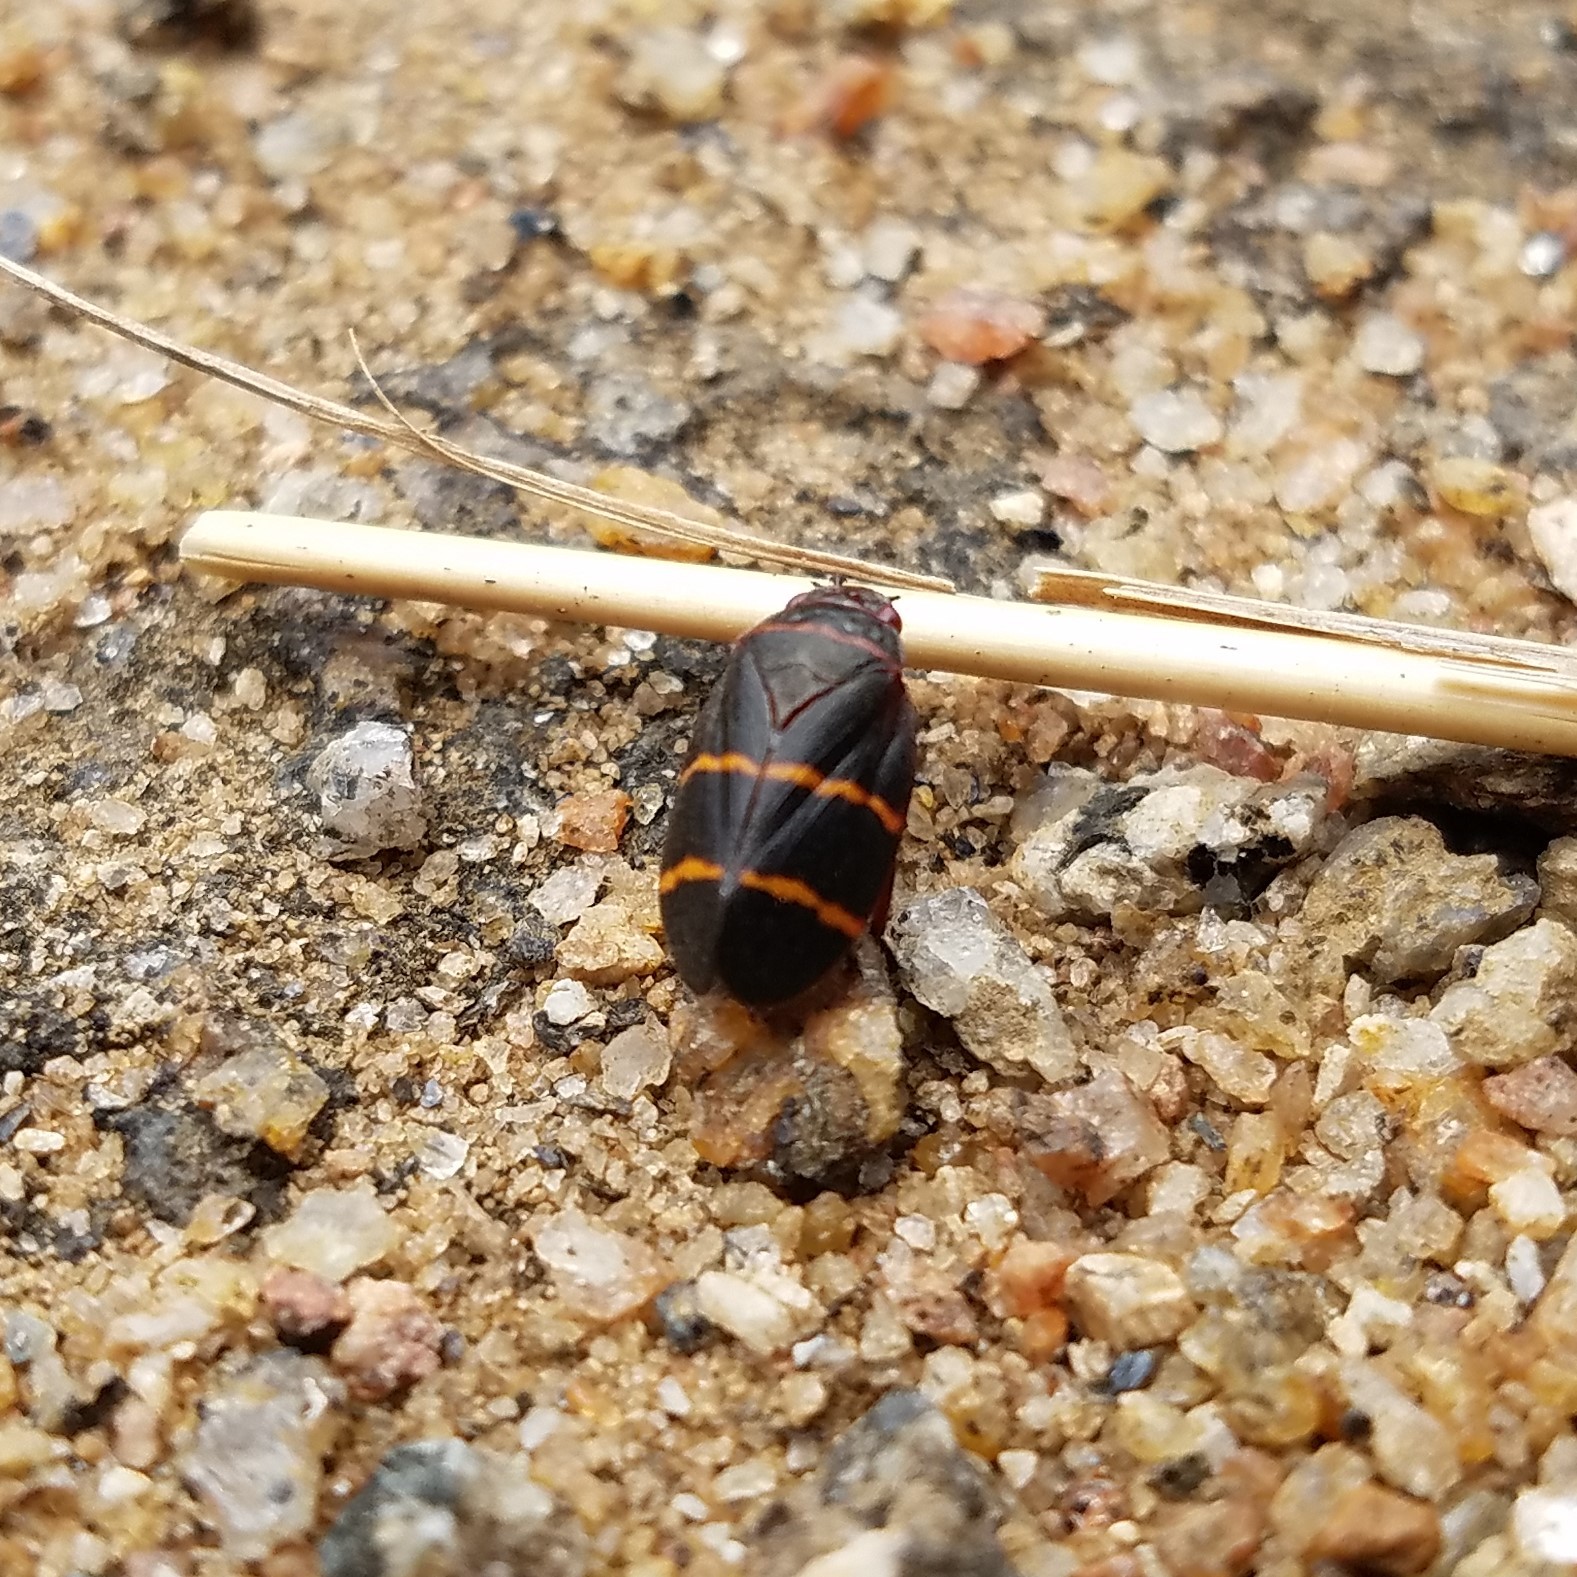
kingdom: Animalia
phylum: Arthropoda
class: Insecta
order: Hemiptera
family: Cercopidae
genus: Prosapia
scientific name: Prosapia bicincta
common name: Twolined spittlebug
